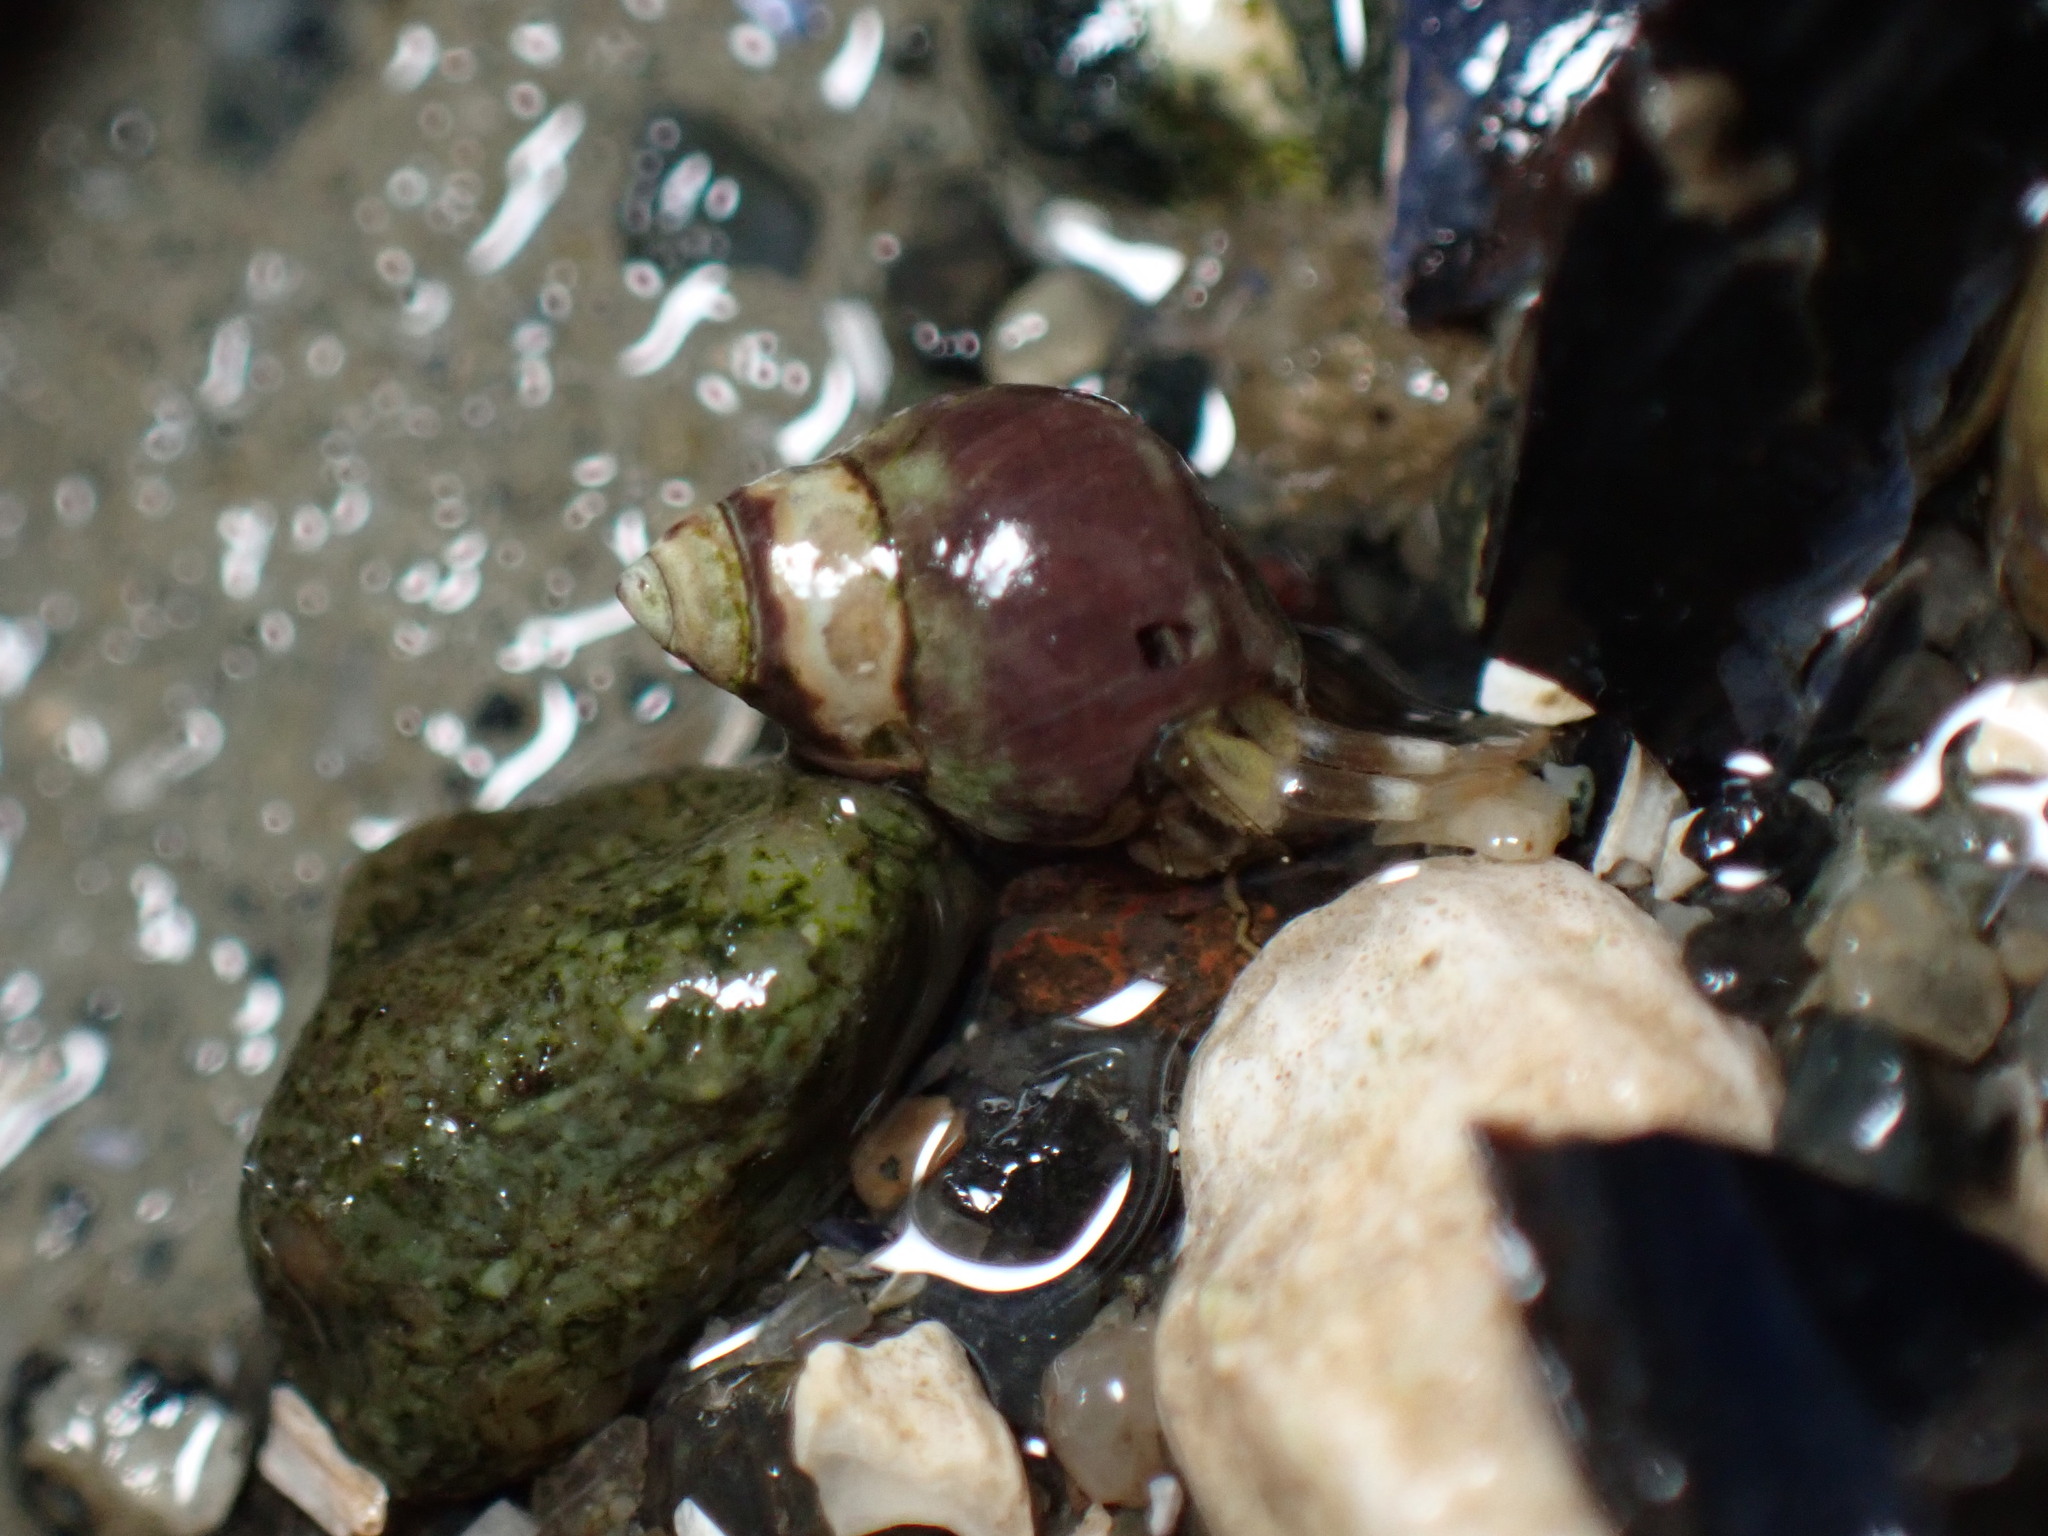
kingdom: Animalia
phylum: Arthropoda
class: Malacostraca
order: Decapoda
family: Paguridae
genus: Pagurus
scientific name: Pagurus hirsutiusculus
